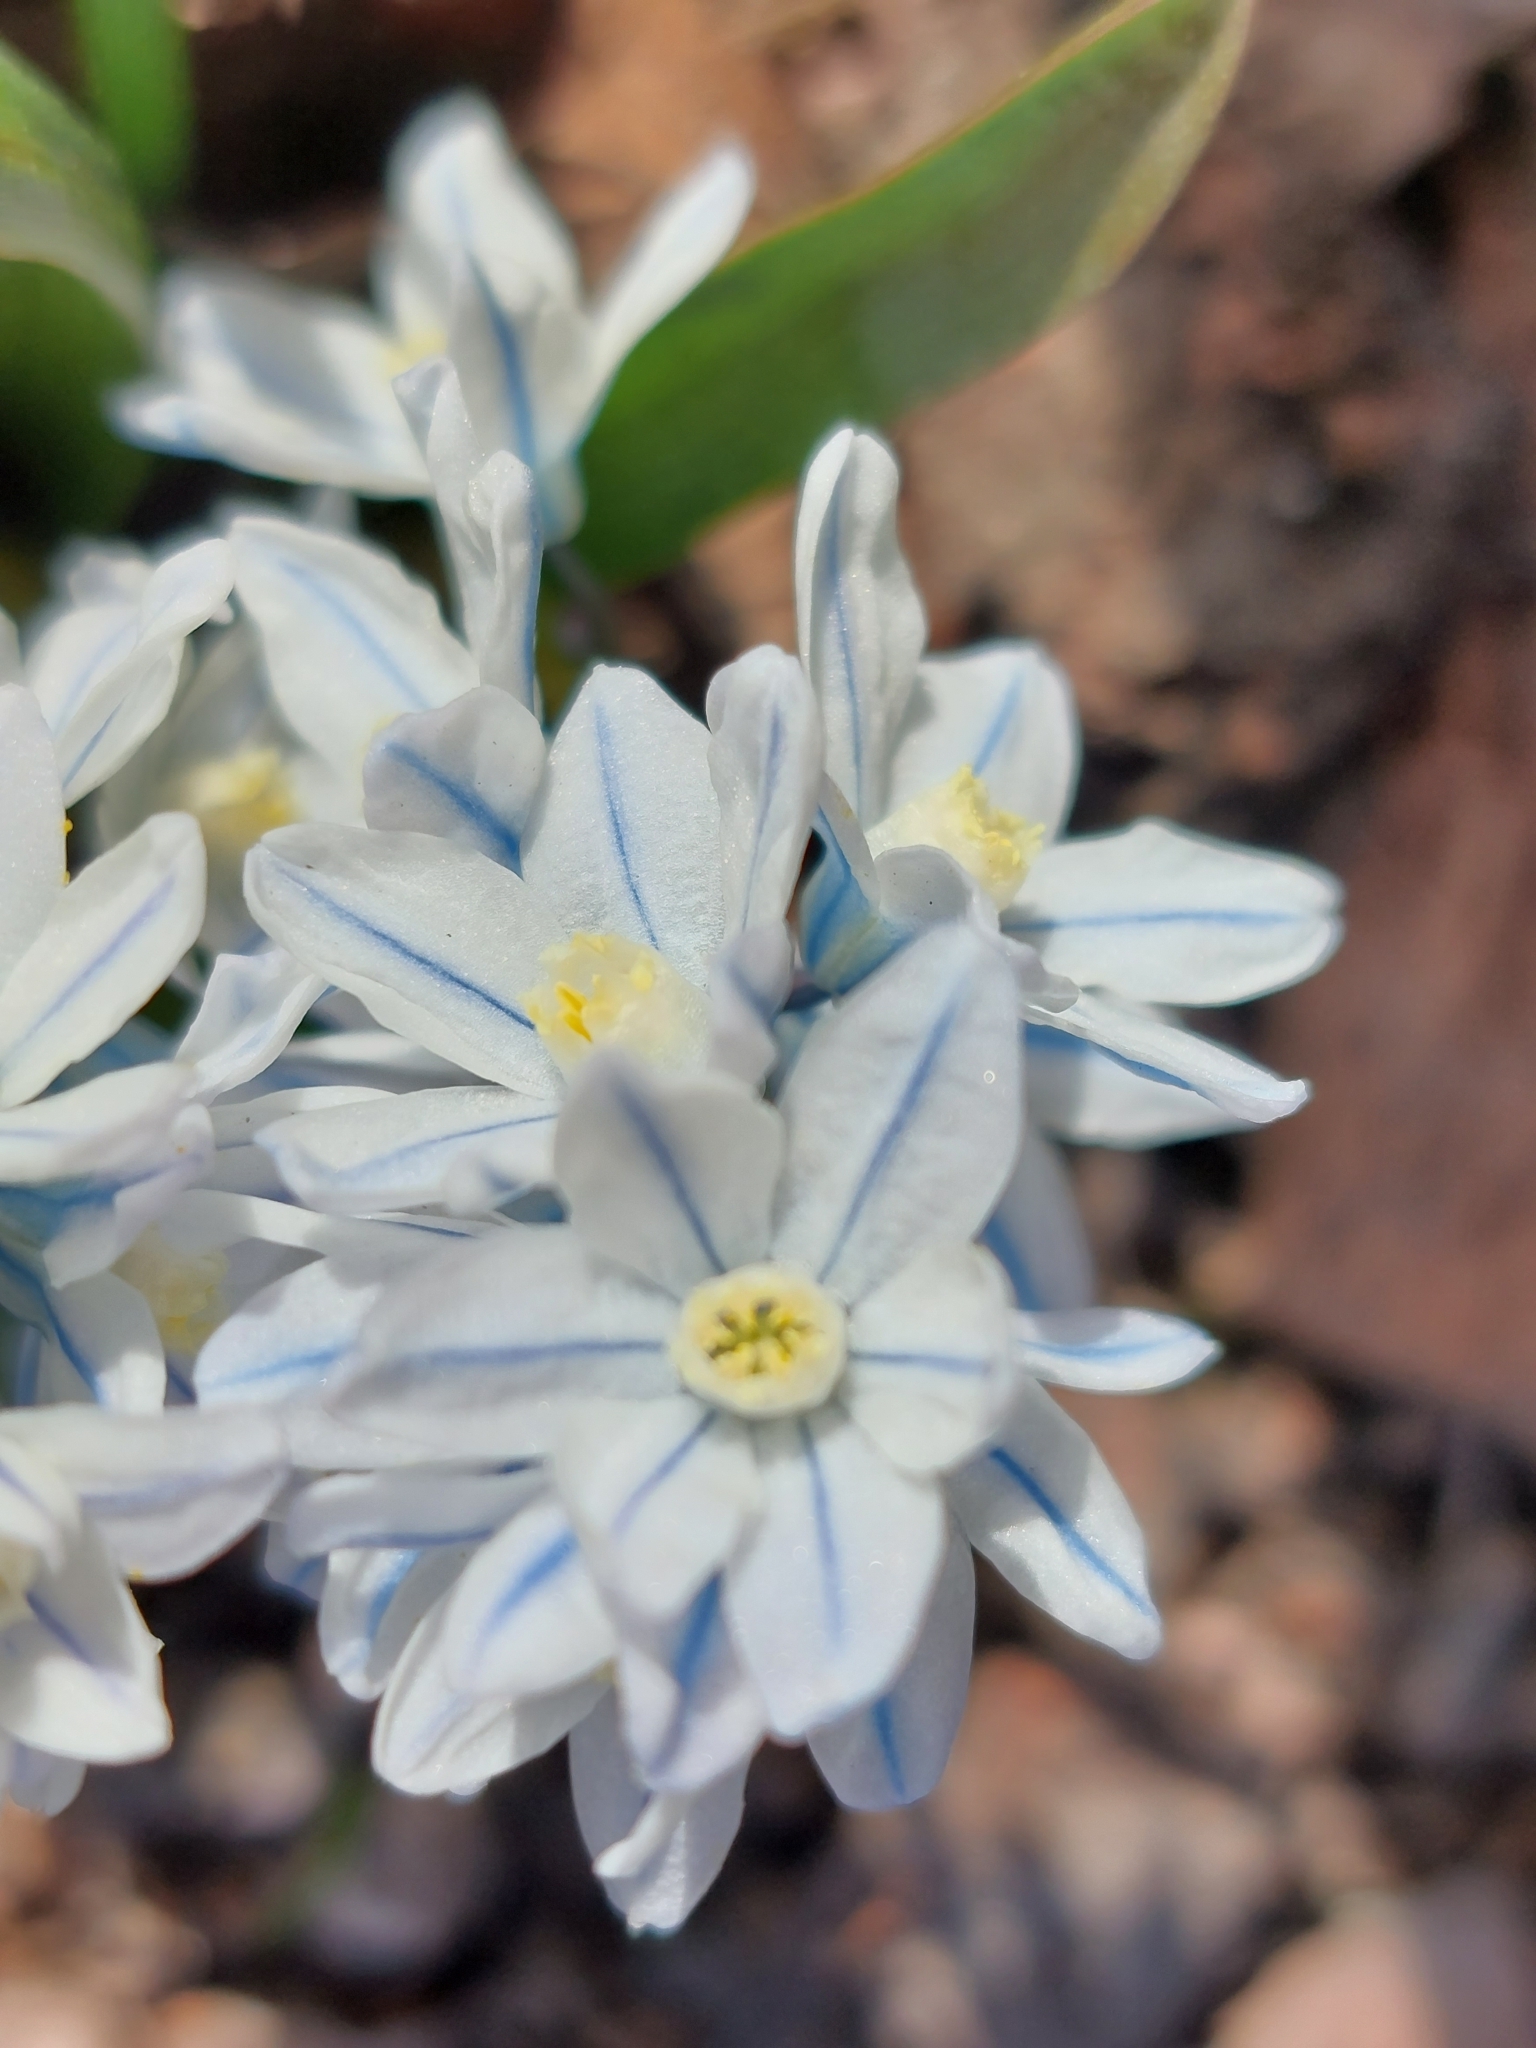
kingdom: Plantae
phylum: Tracheophyta
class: Liliopsida
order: Asparagales
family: Asparagaceae
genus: Puschkinia
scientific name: Puschkinia scilloides
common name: Striped squill
